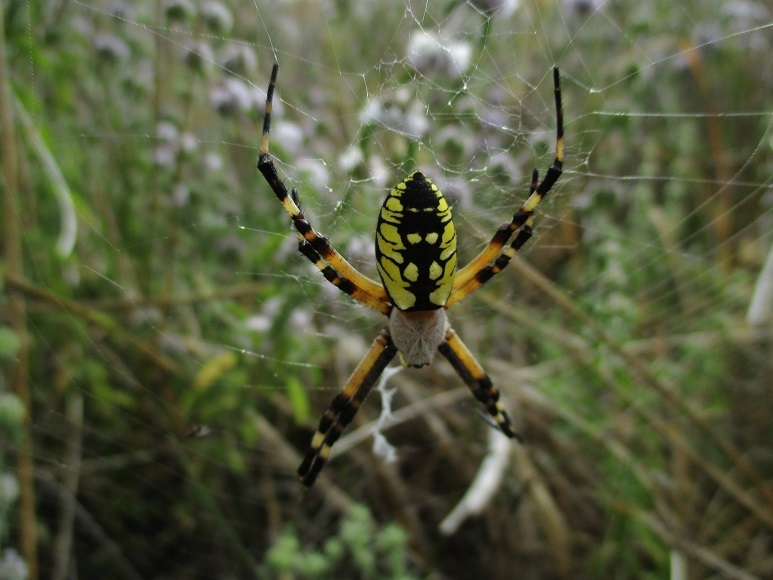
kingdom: Animalia
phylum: Arthropoda
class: Arachnida
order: Araneae
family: Araneidae
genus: Argiope
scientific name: Argiope aurantia
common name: Orb weavers
